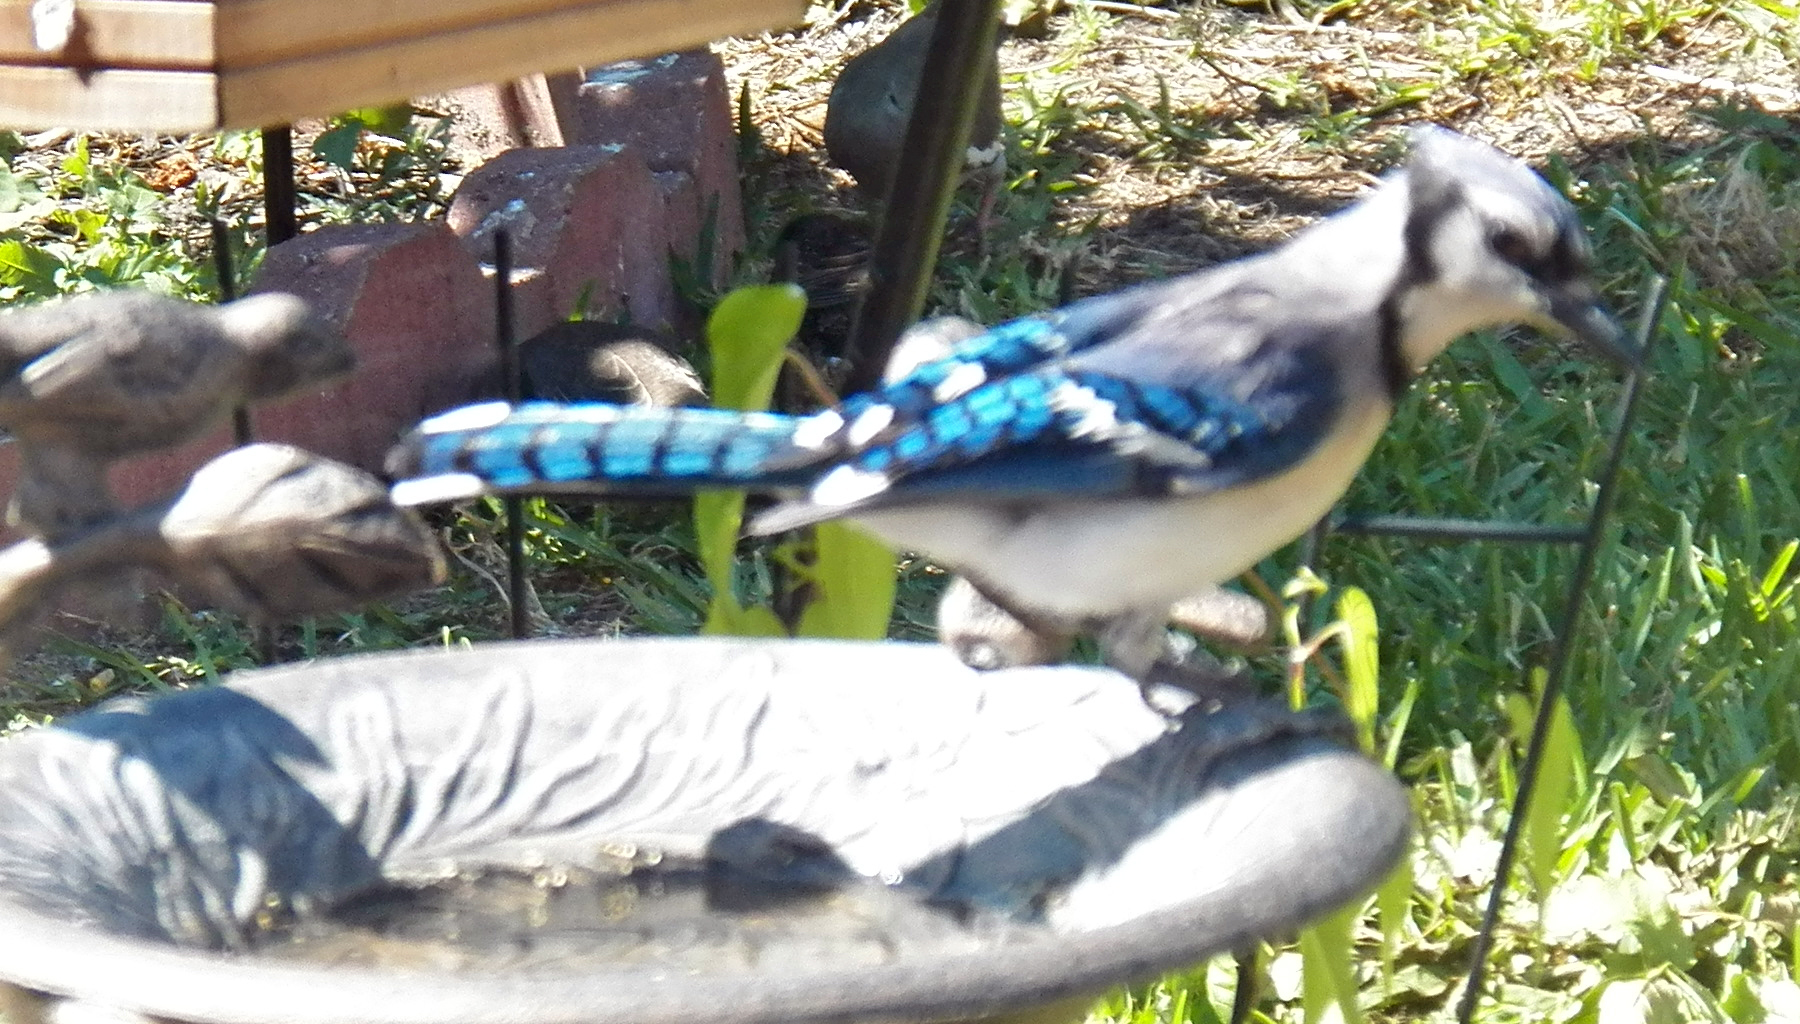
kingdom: Animalia
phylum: Chordata
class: Aves
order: Passeriformes
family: Corvidae
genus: Cyanocitta
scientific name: Cyanocitta cristata
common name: Blue jay
